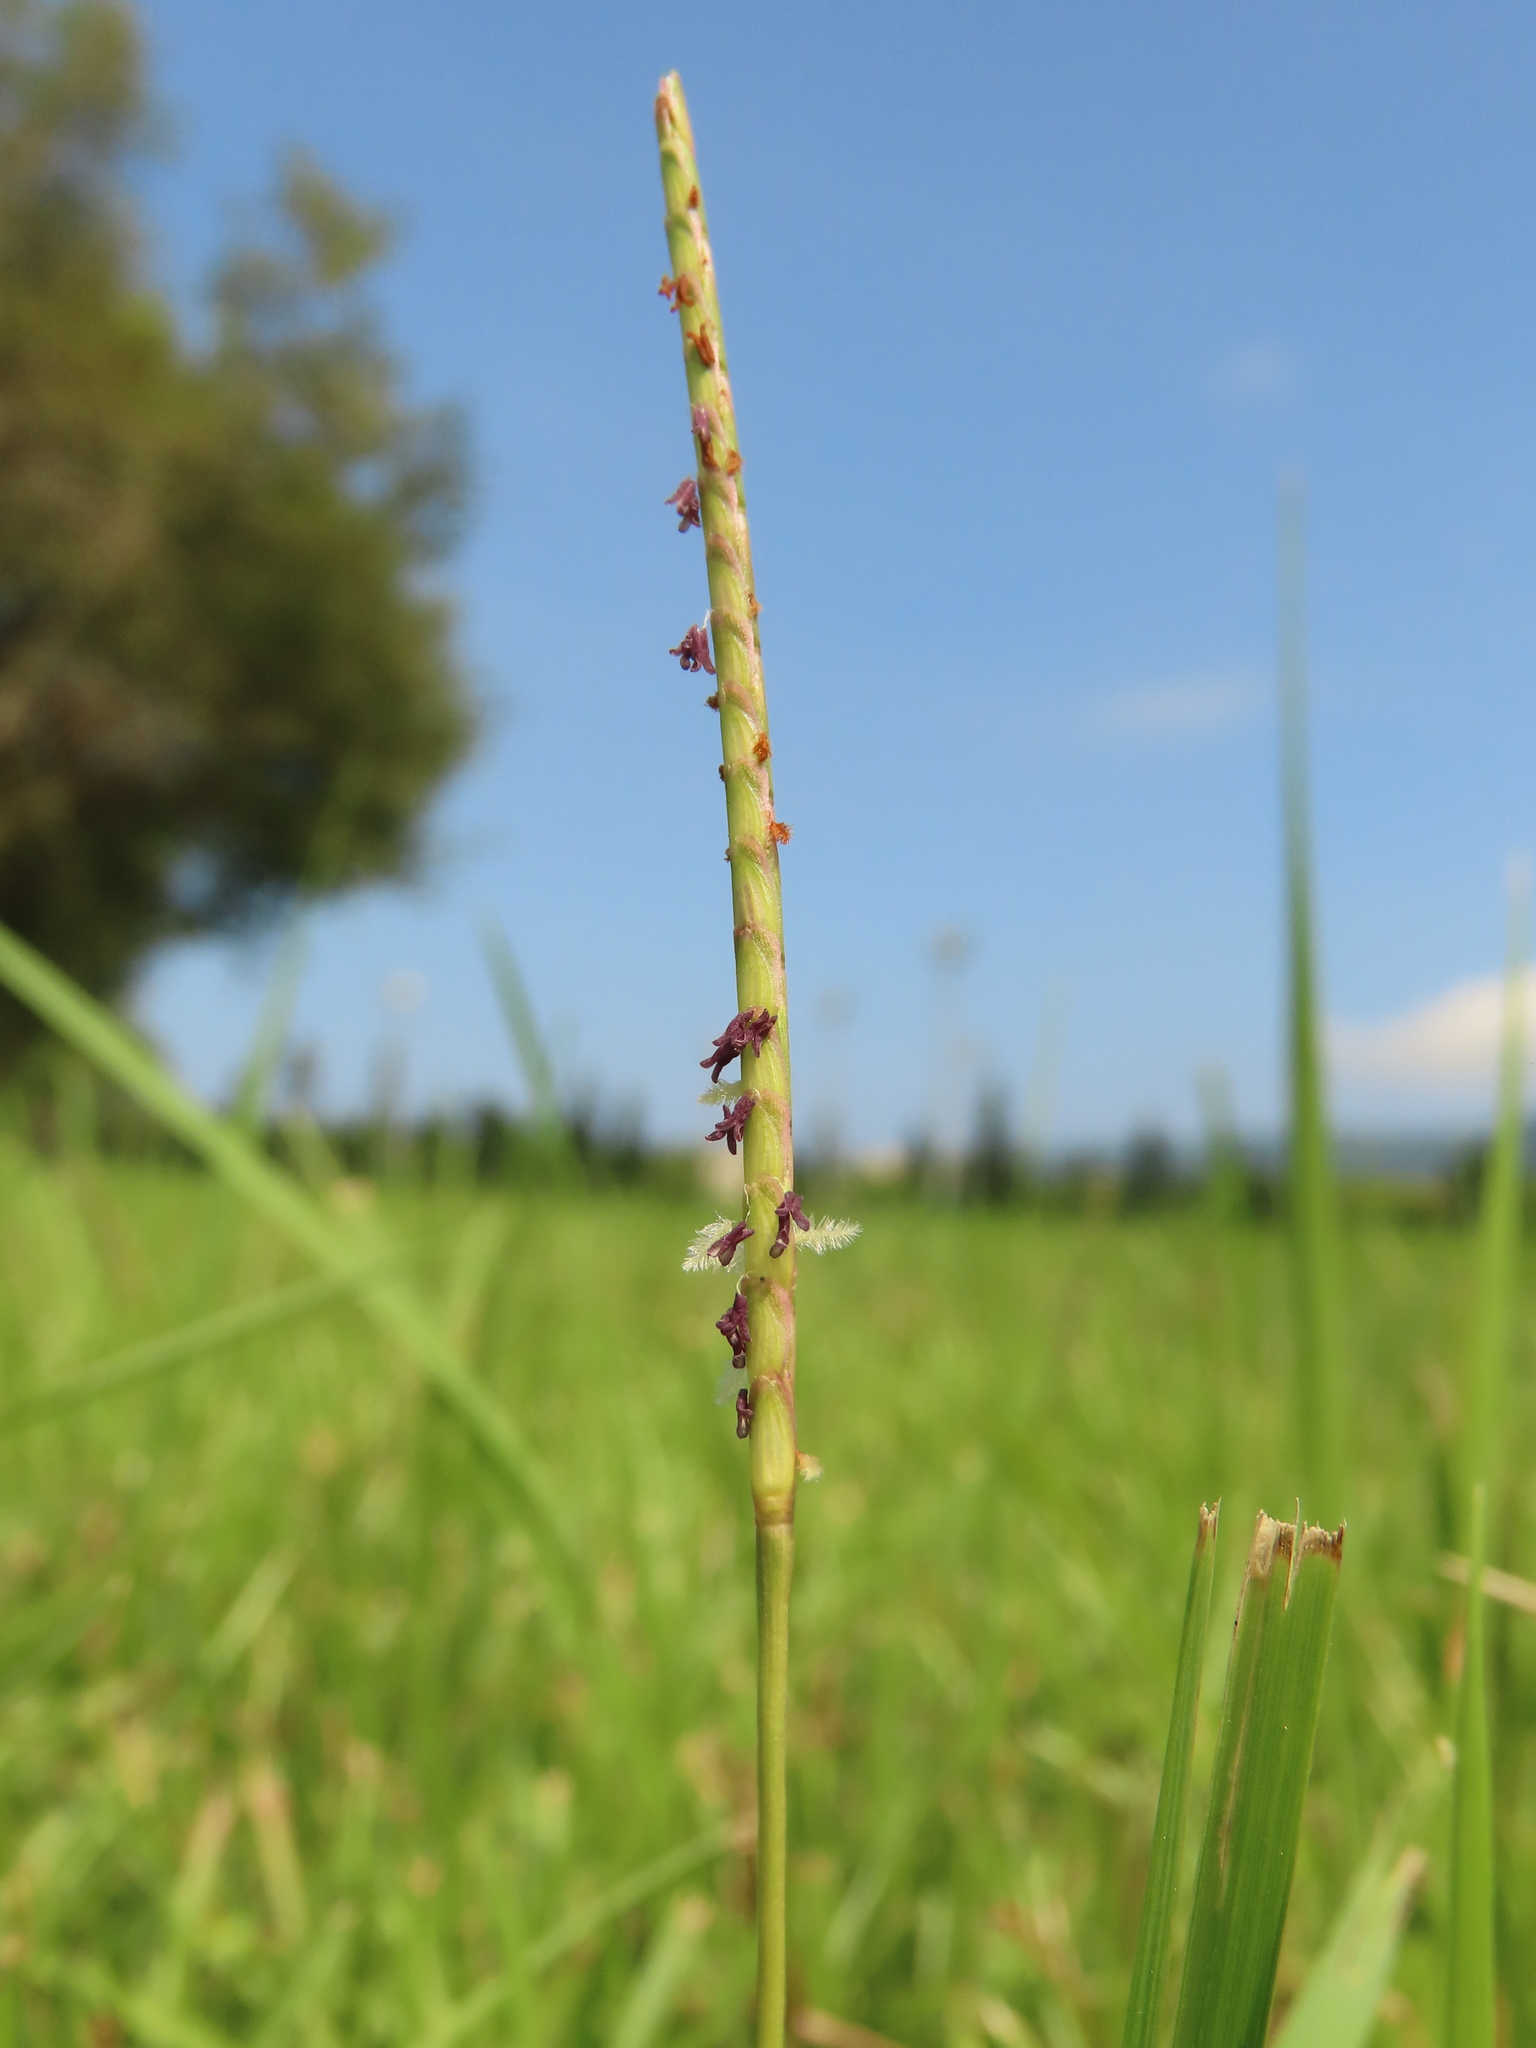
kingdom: Plantae
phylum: Tracheophyta
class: Liliopsida
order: Poales
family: Poaceae
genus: Eremochloa
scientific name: Eremochloa ophiuroides
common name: Centipede grass
